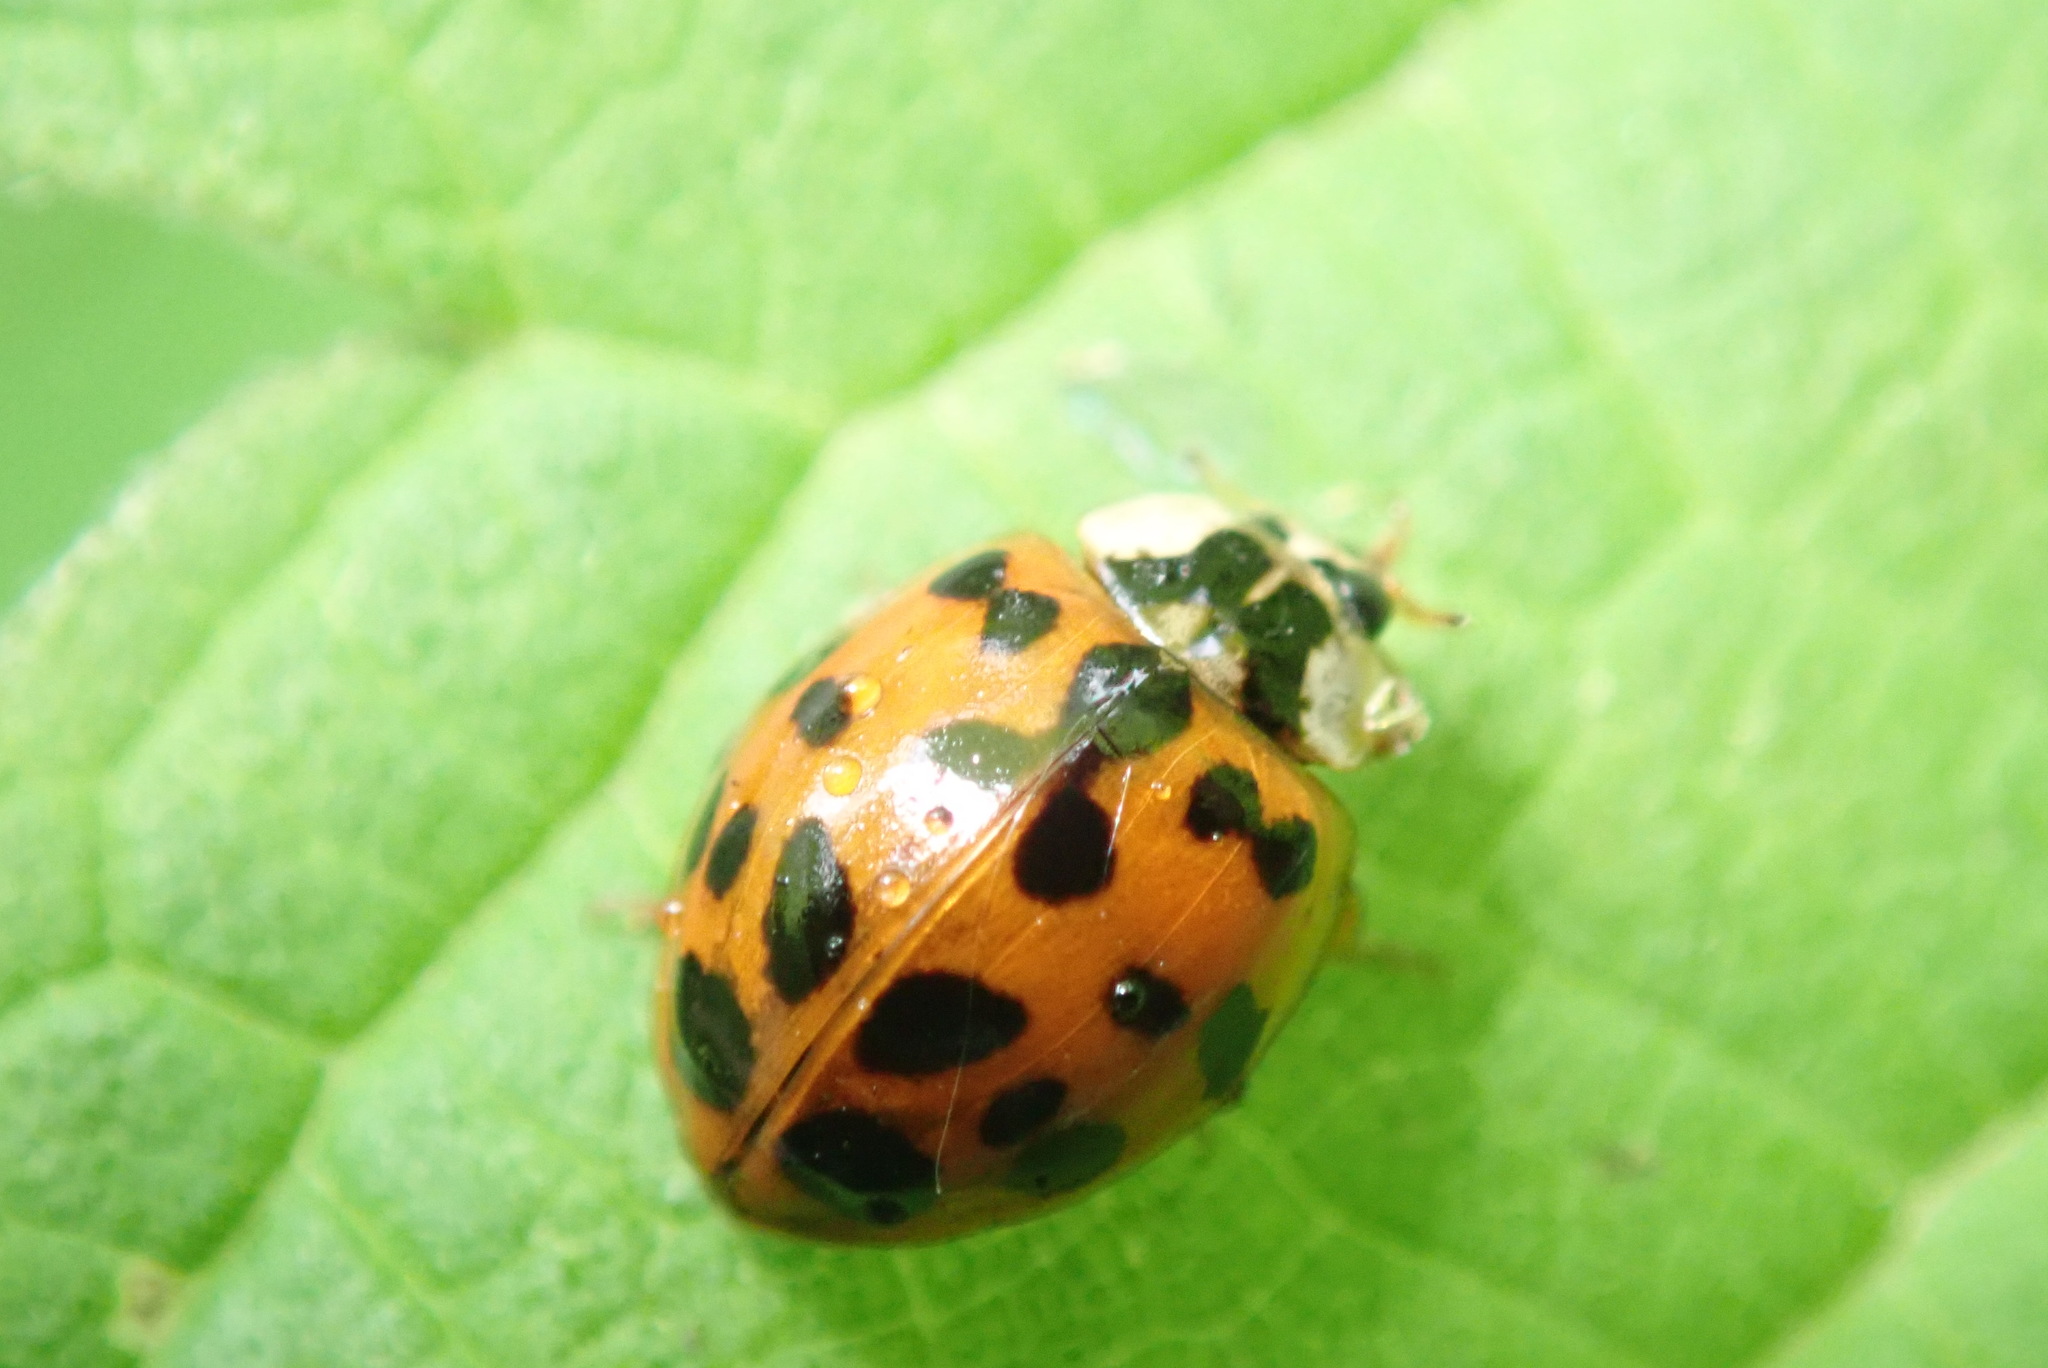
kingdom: Animalia
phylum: Arthropoda
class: Insecta
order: Coleoptera
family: Coccinellidae
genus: Harmonia
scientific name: Harmonia axyridis
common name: Harlequin ladybird
